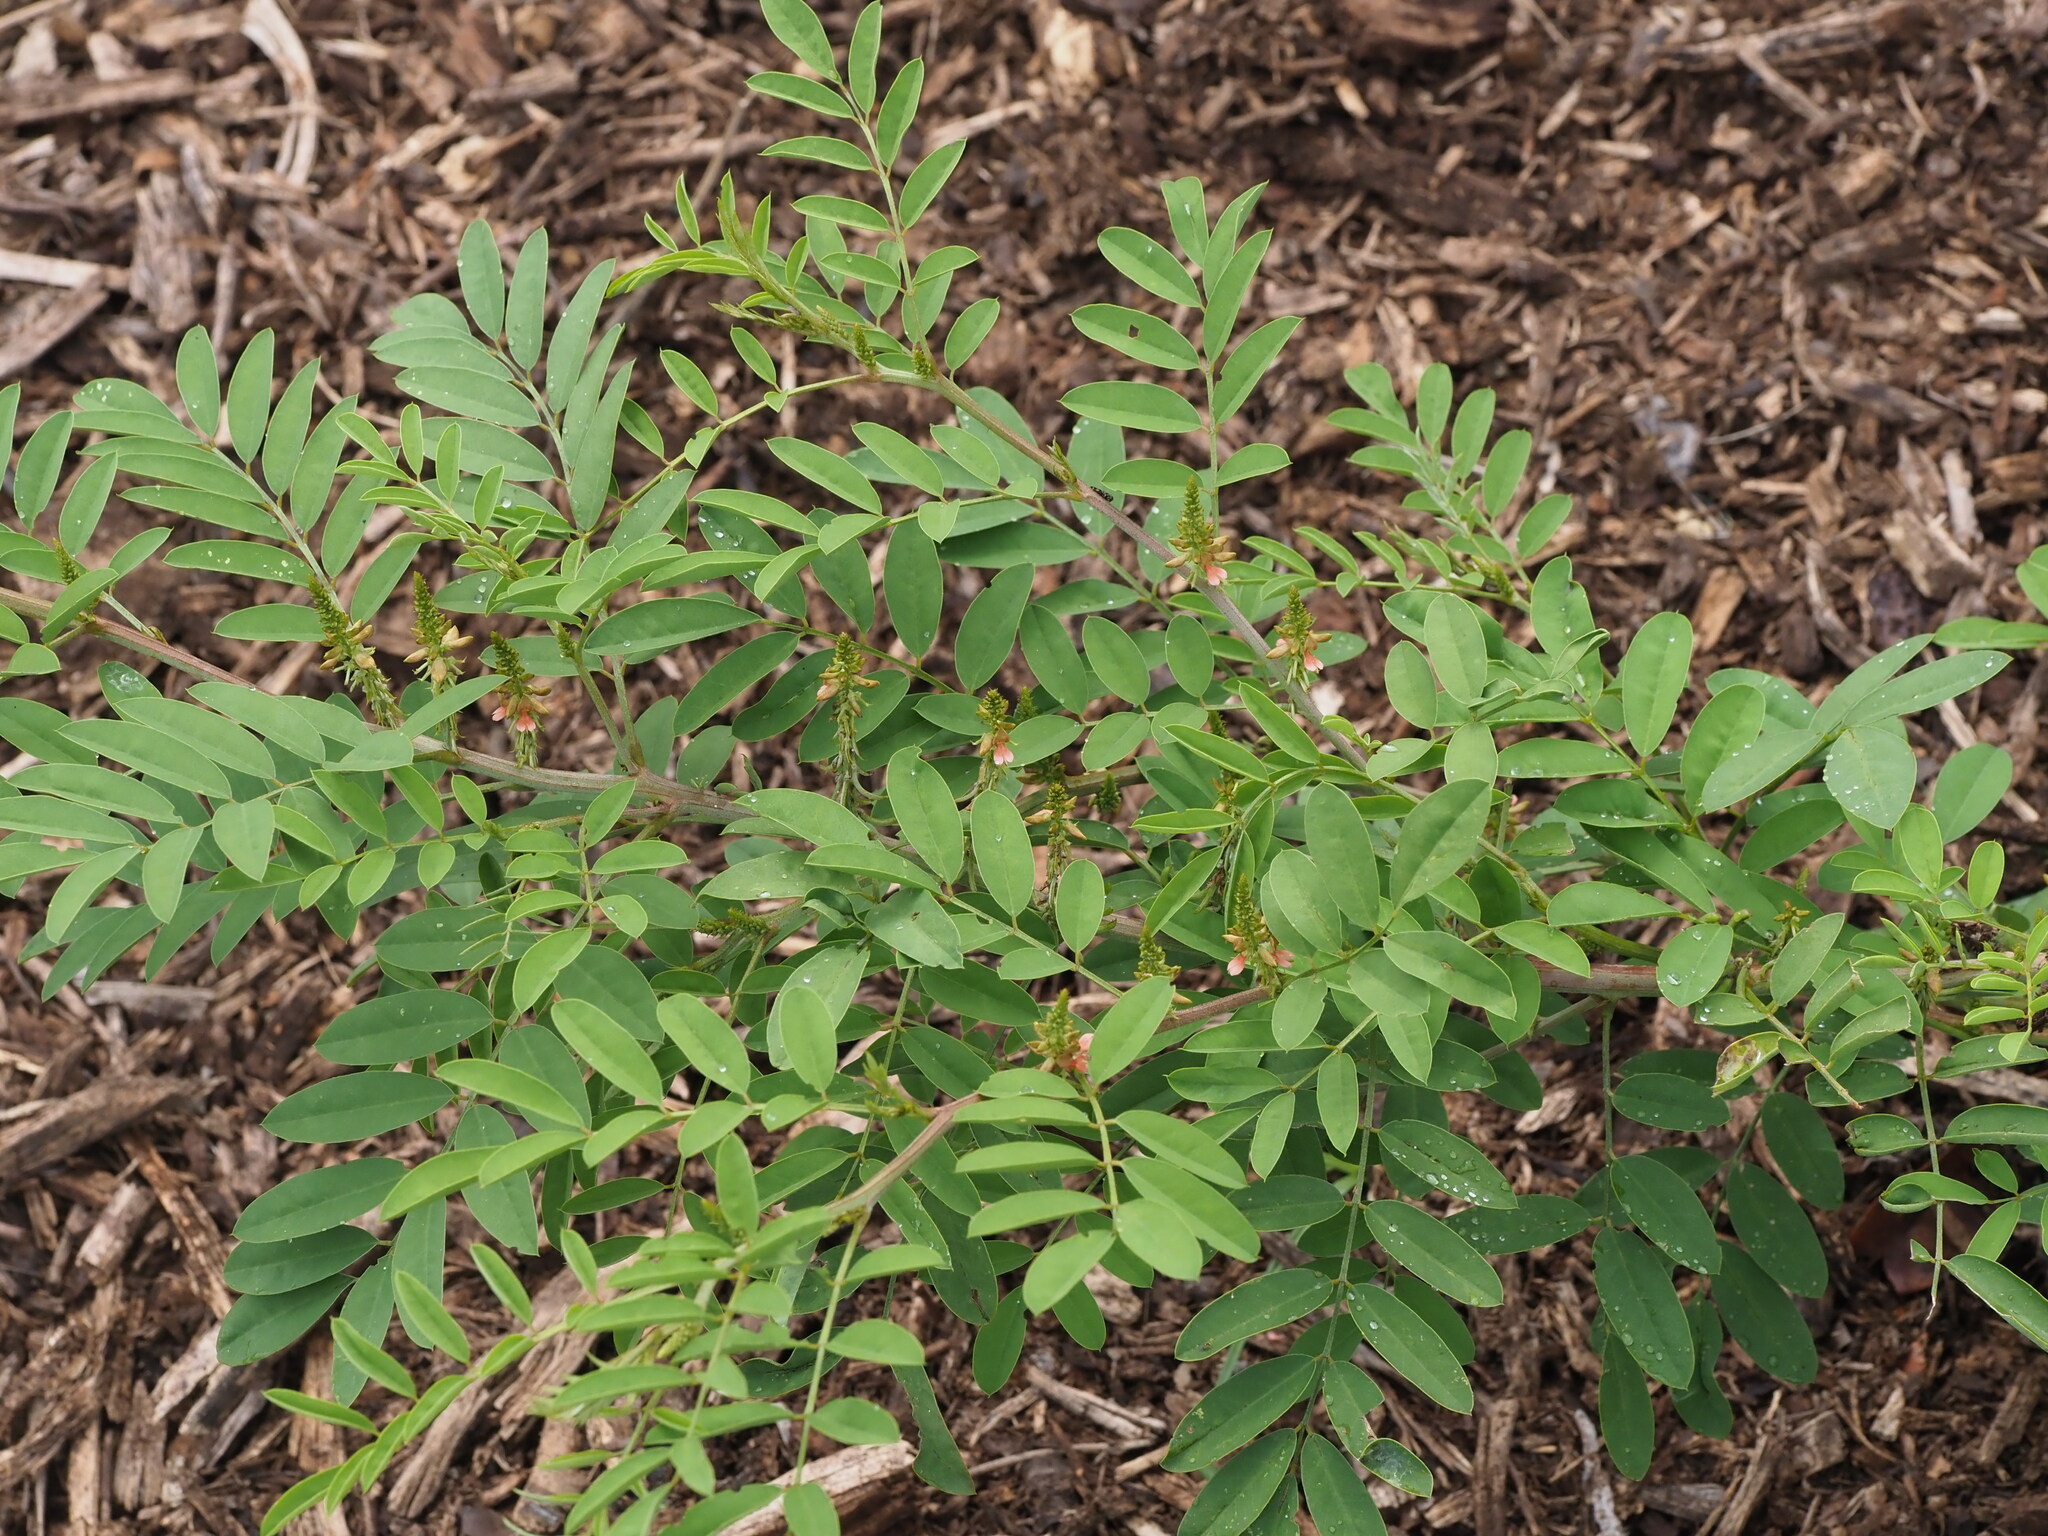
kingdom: Plantae
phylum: Tracheophyta
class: Magnoliopsida
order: Fabales
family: Fabaceae
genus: Indigofera
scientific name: Indigofera suffruticosa
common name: Anil de pasto
